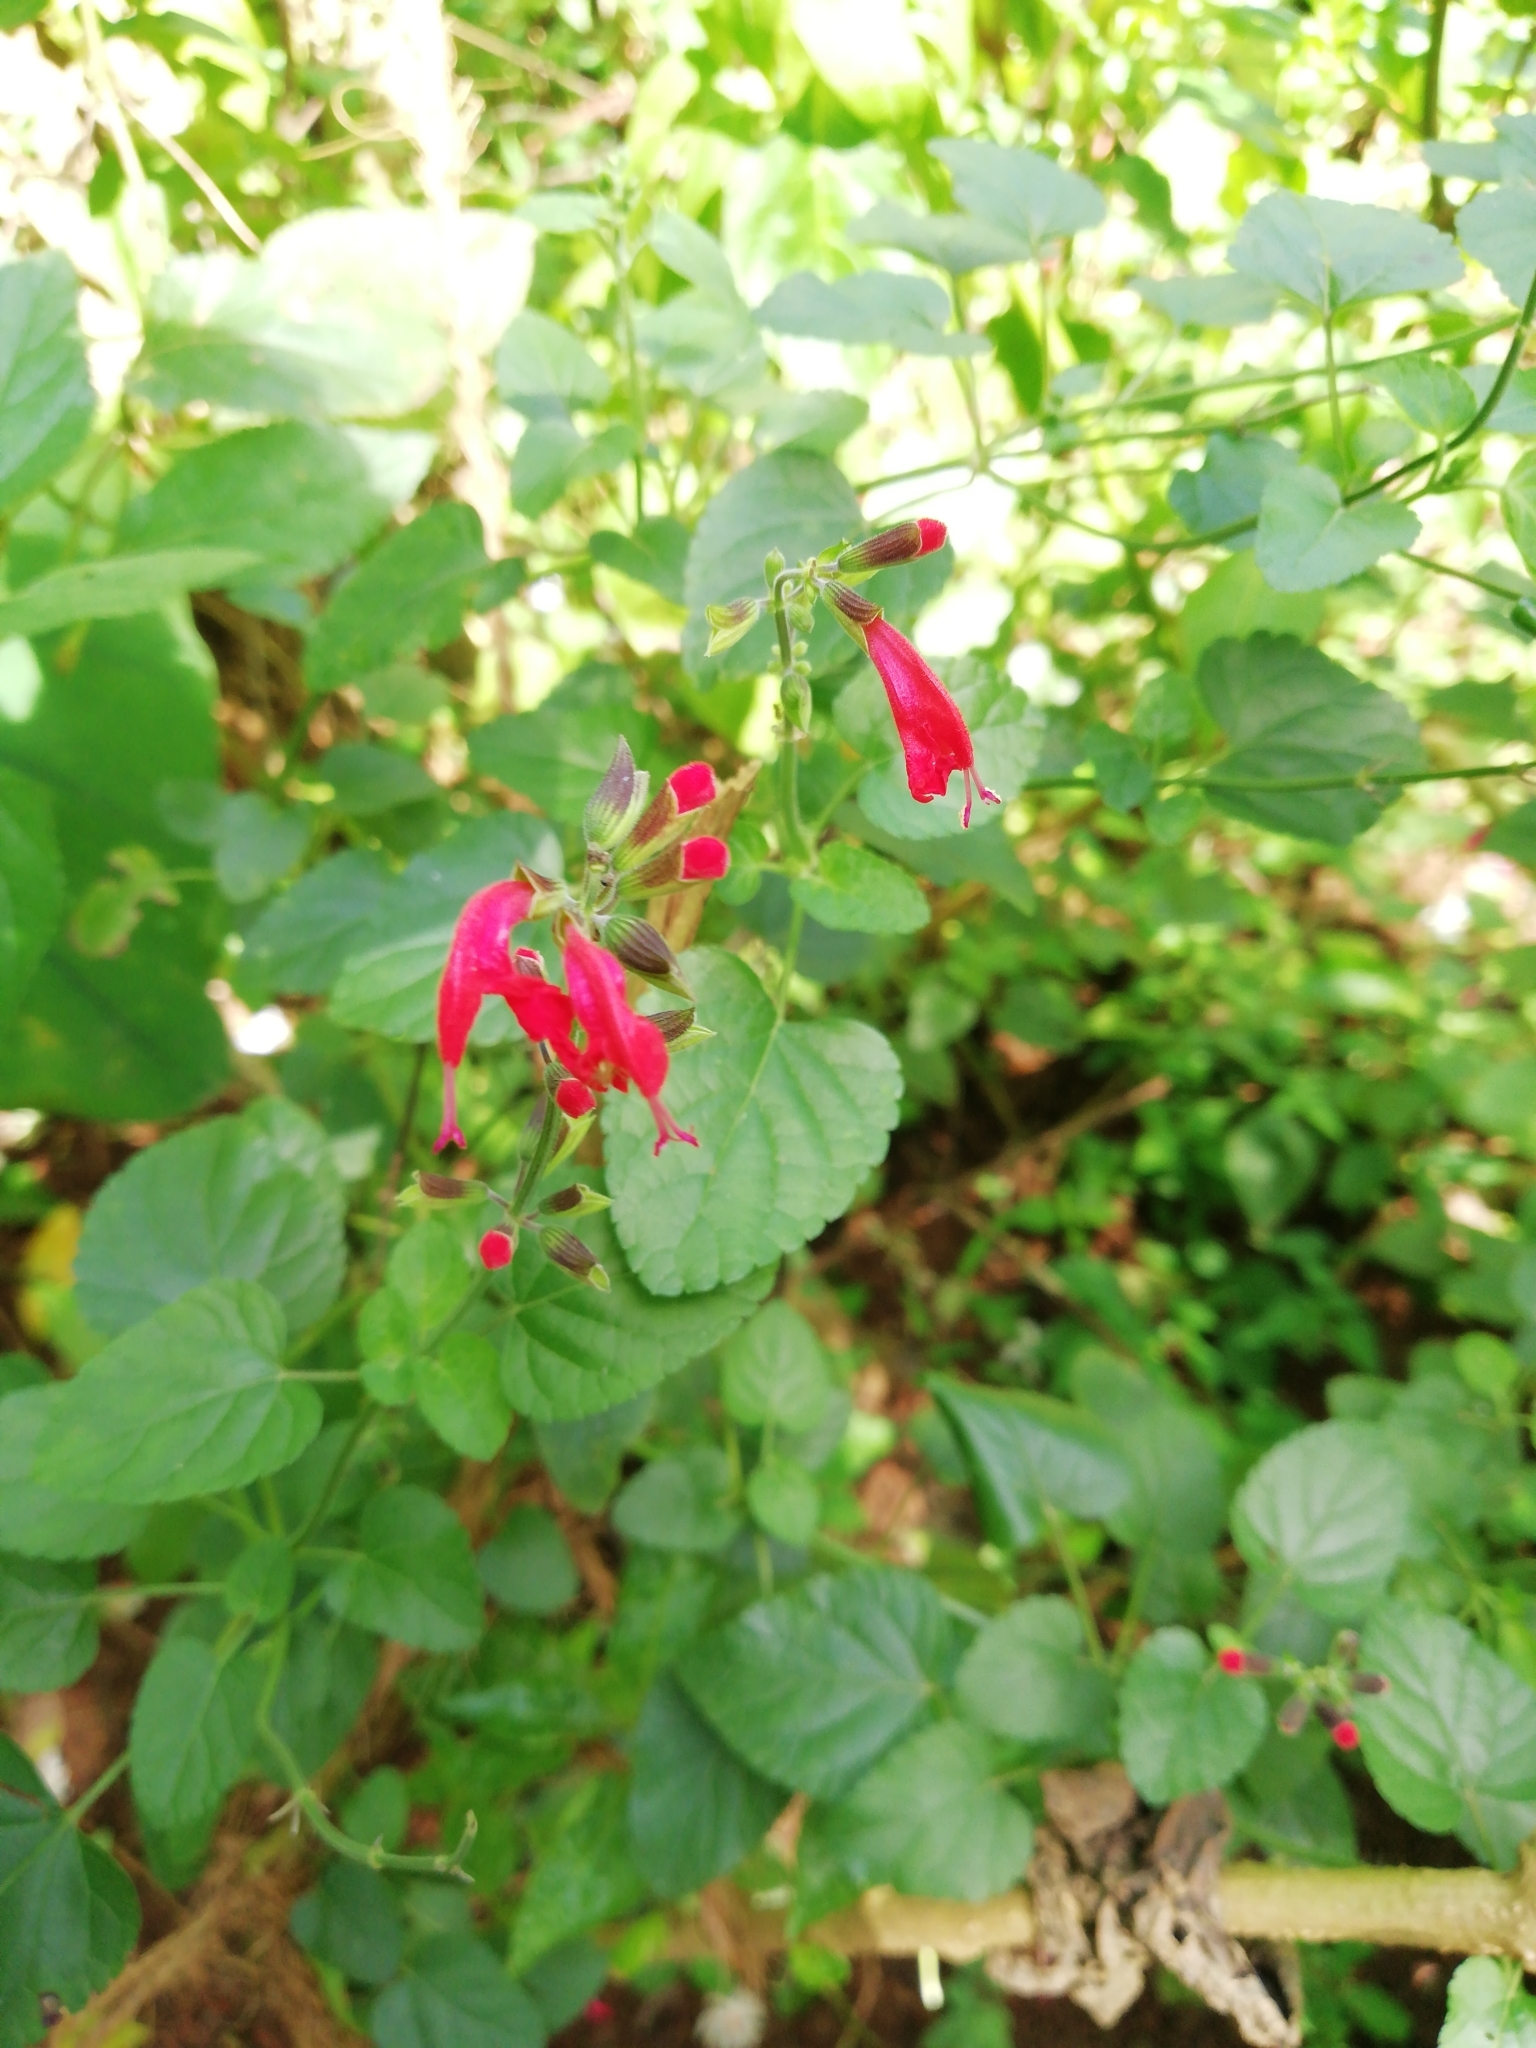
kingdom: Plantae
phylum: Tracheophyta
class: Magnoliopsida
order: Lamiales
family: Lamiaceae
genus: Salvia
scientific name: Salvia coccinea
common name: Blood sage
